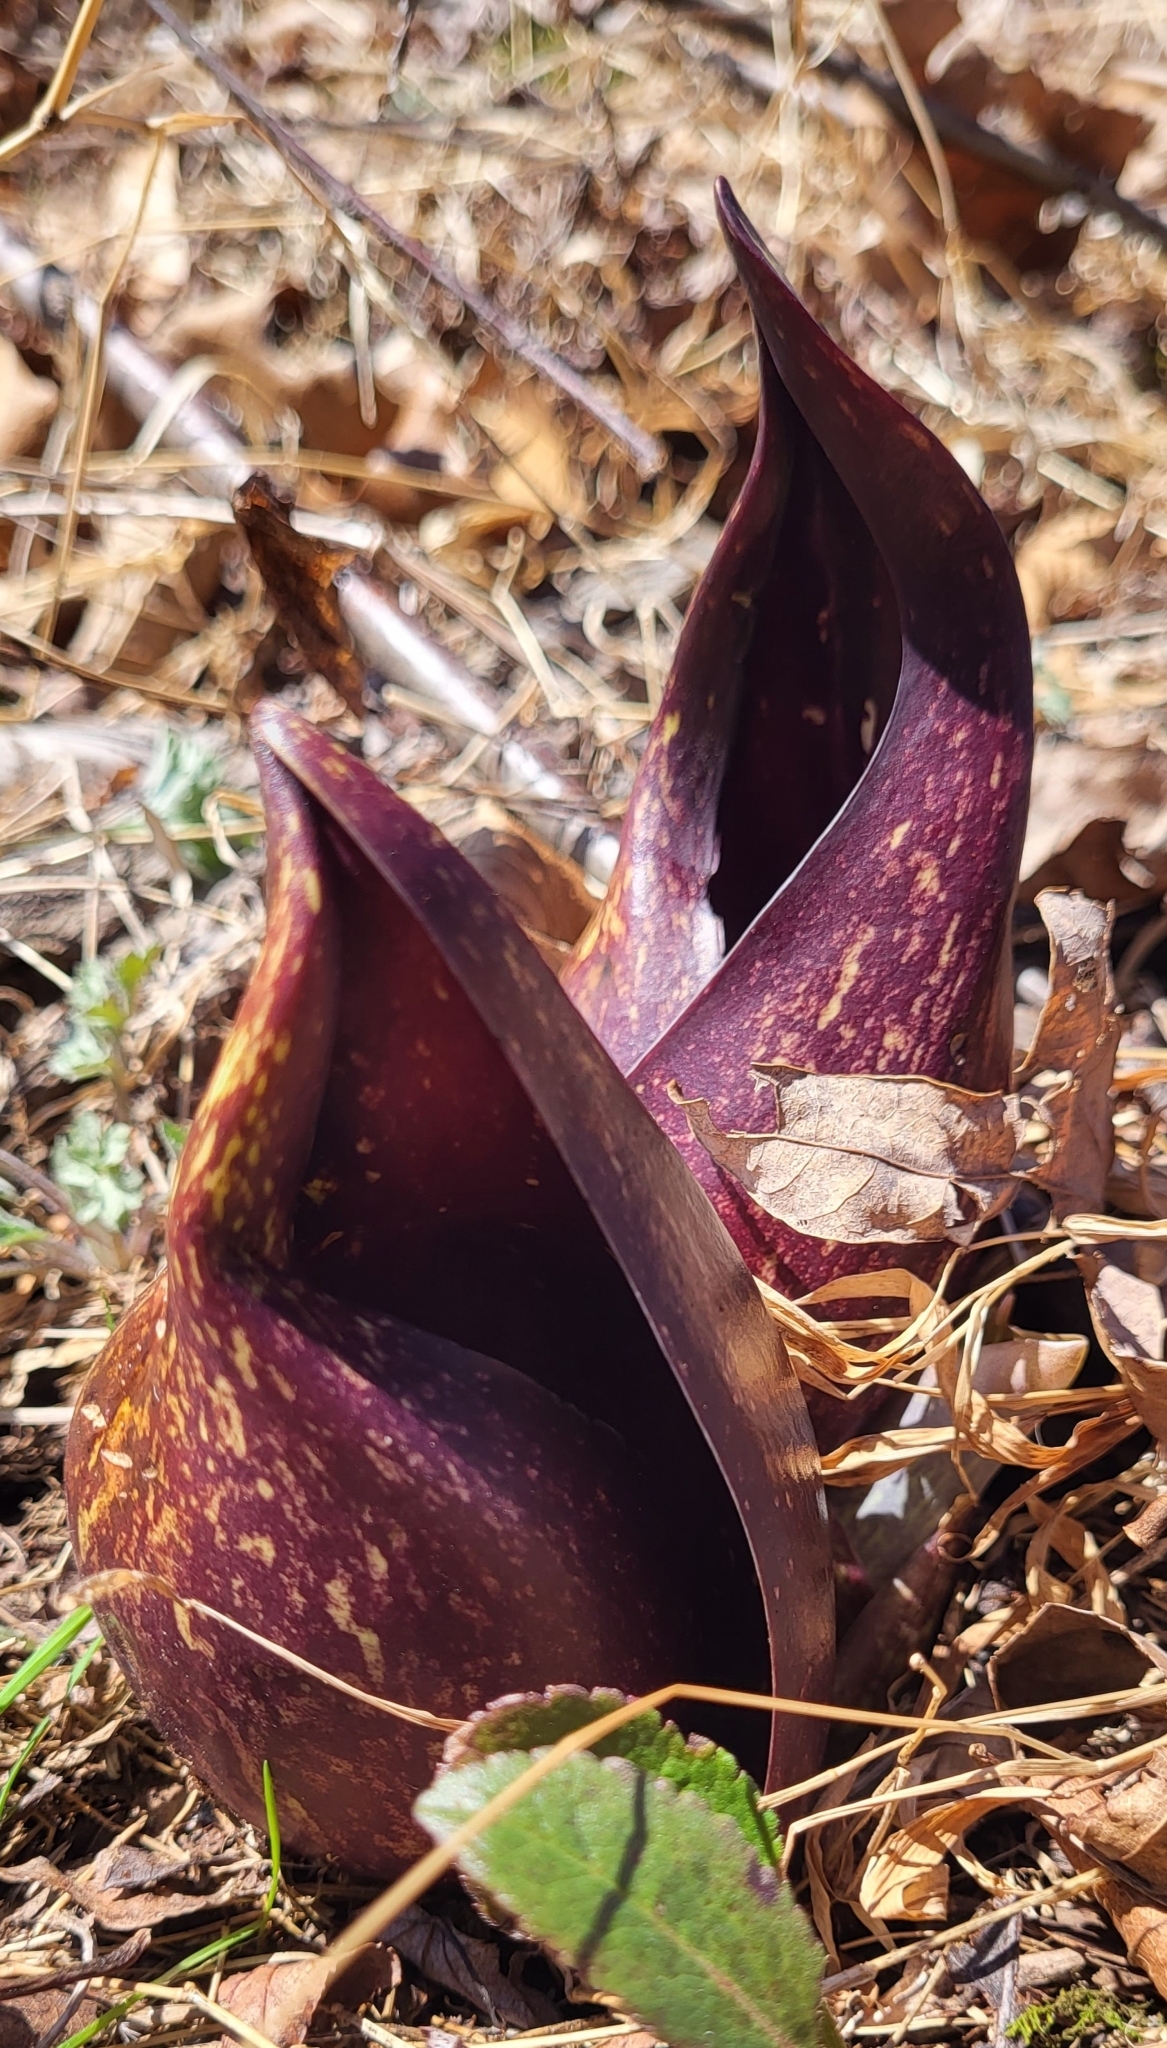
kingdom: Plantae
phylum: Tracheophyta
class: Liliopsida
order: Alismatales
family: Araceae
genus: Symplocarpus
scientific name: Symplocarpus foetidus
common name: Eastern skunk cabbage
